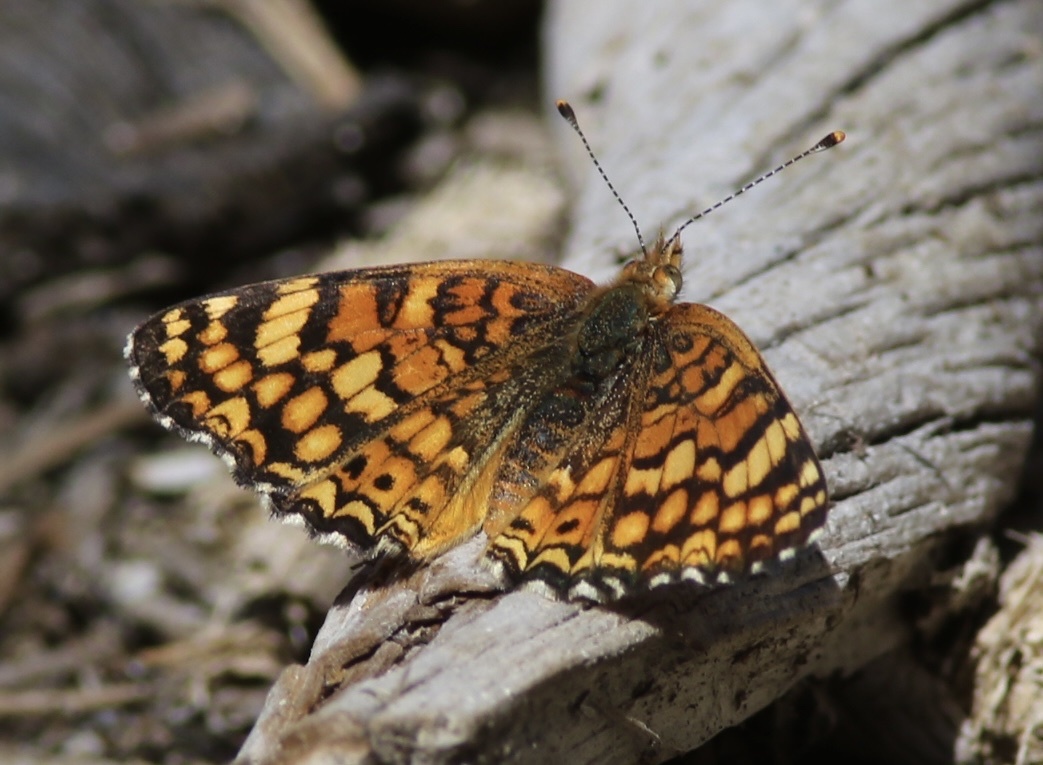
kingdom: Animalia
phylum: Arthropoda
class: Insecta
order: Lepidoptera
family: Nymphalidae
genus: Eresia
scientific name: Eresia aveyrona
